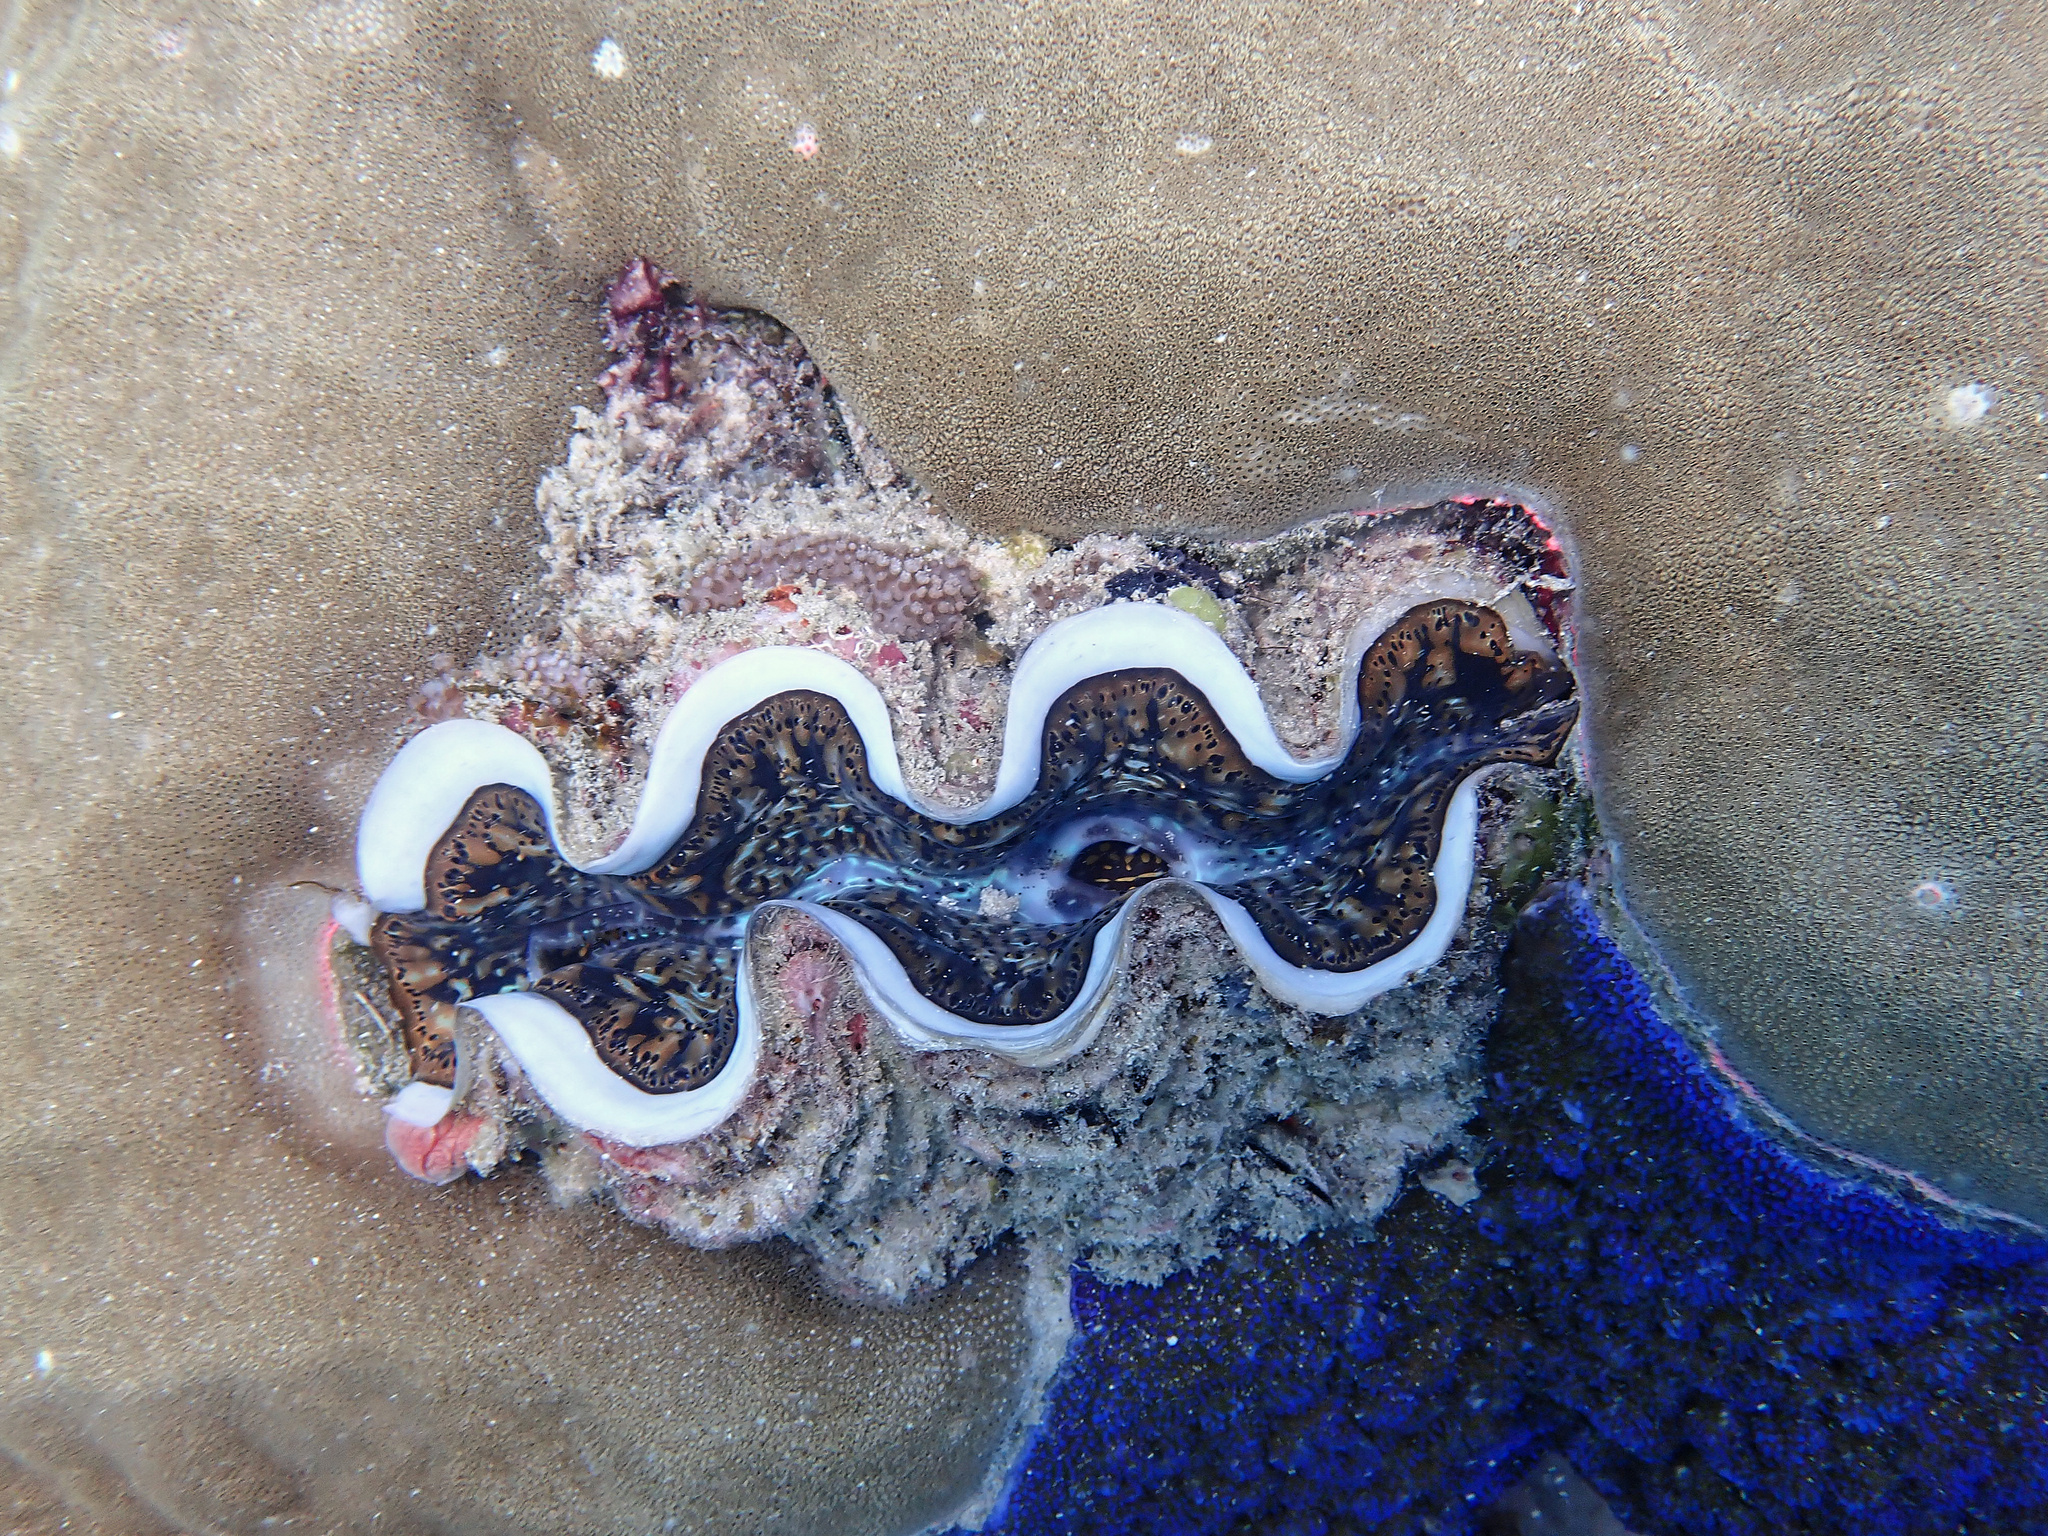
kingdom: Animalia
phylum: Mollusca
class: Bivalvia
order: Cardiida
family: Cardiidae
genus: Tridacna
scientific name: Tridacna maxima
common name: Small giant clam
